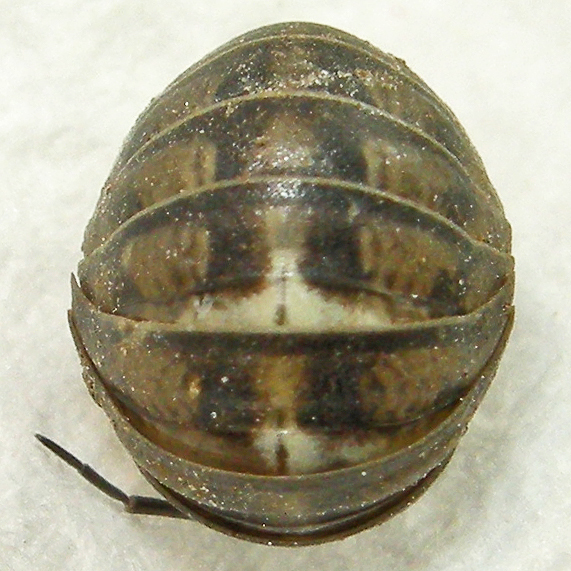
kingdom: Animalia
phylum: Arthropoda
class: Malacostraca
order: Isopoda
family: Armadillidiidae
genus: Armadillidium
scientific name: Armadillidium nasatum
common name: Isopod
